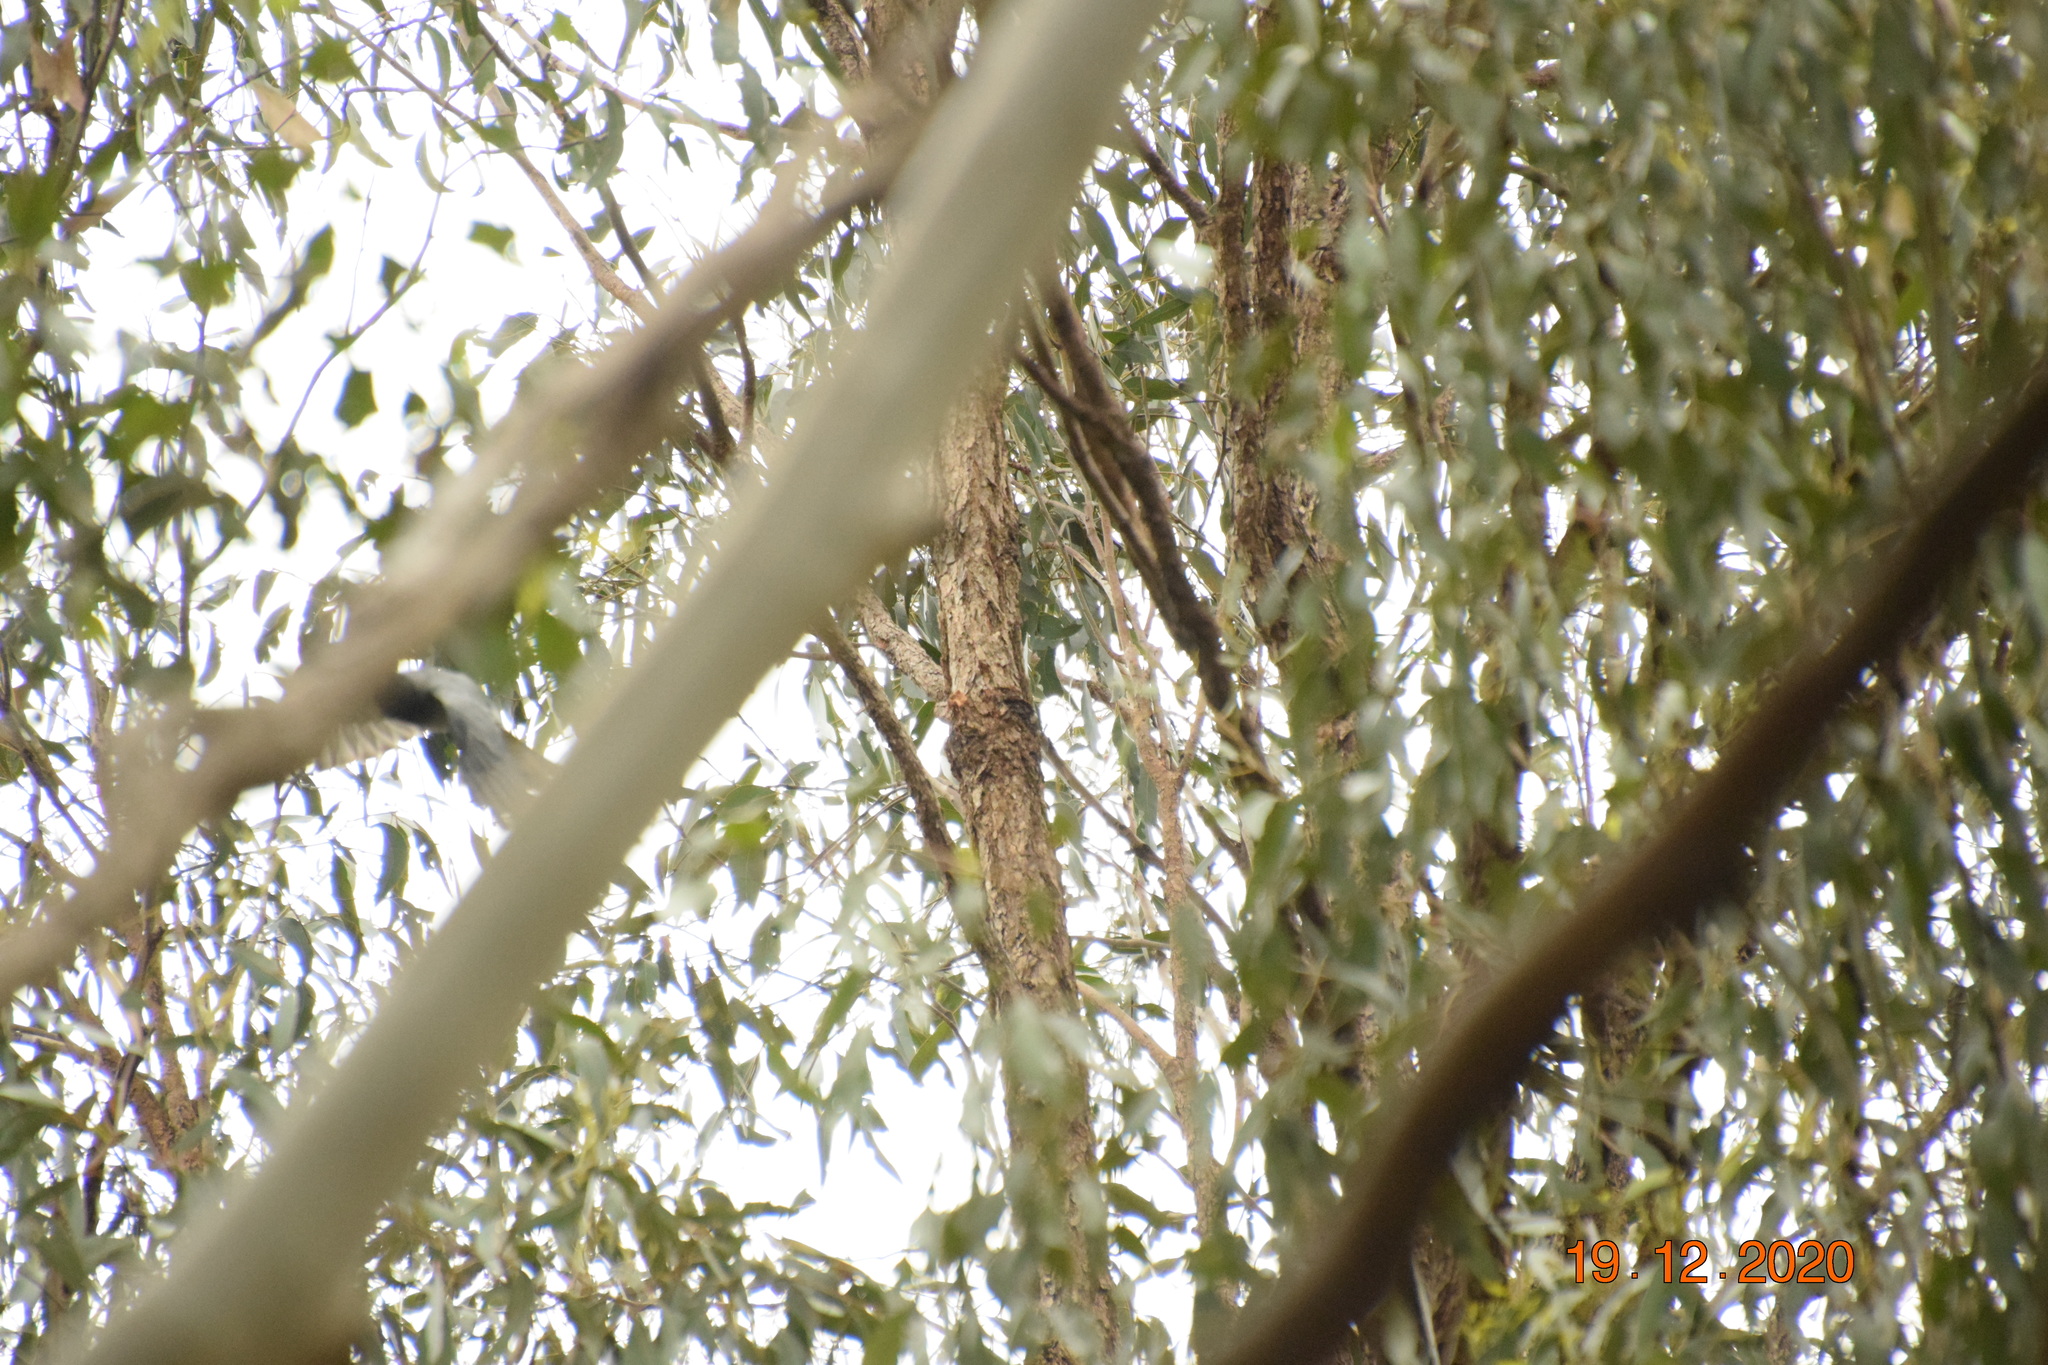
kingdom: Animalia
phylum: Chordata
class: Aves
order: Passeriformes
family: Campephagidae
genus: Coracina
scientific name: Coracina novaehollandiae
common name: Black-faced cuckooshrike
